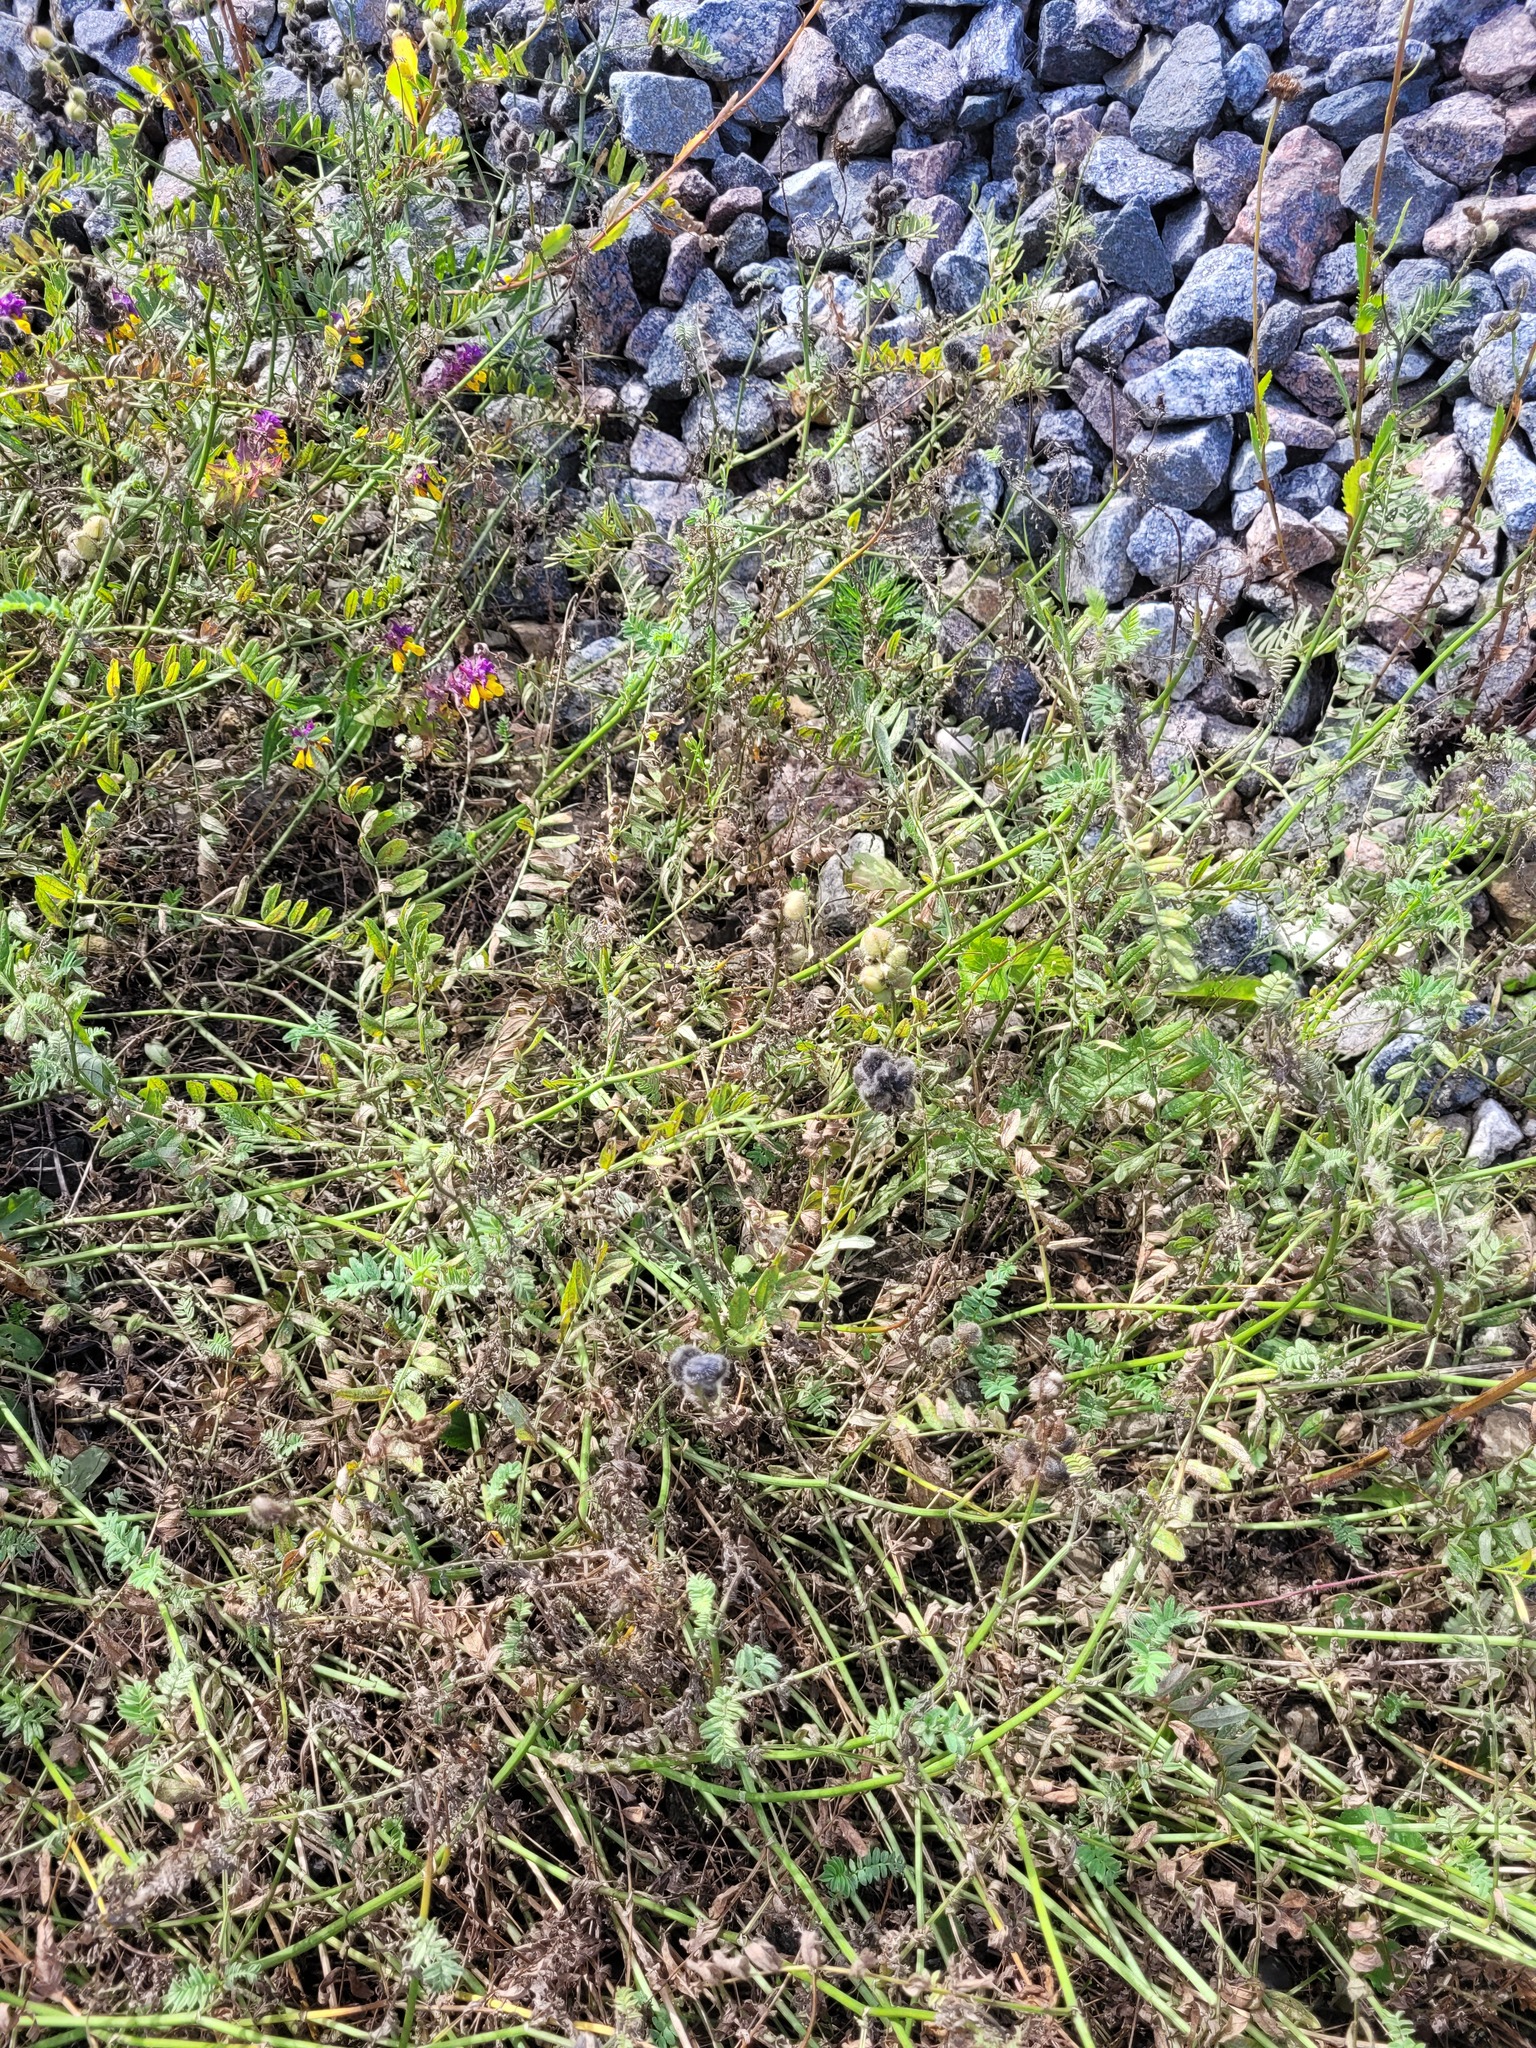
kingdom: Plantae
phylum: Tracheophyta
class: Magnoliopsida
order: Fabales
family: Fabaceae
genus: Astragalus
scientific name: Astragalus cicer
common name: Chick-pea milk-vetch
